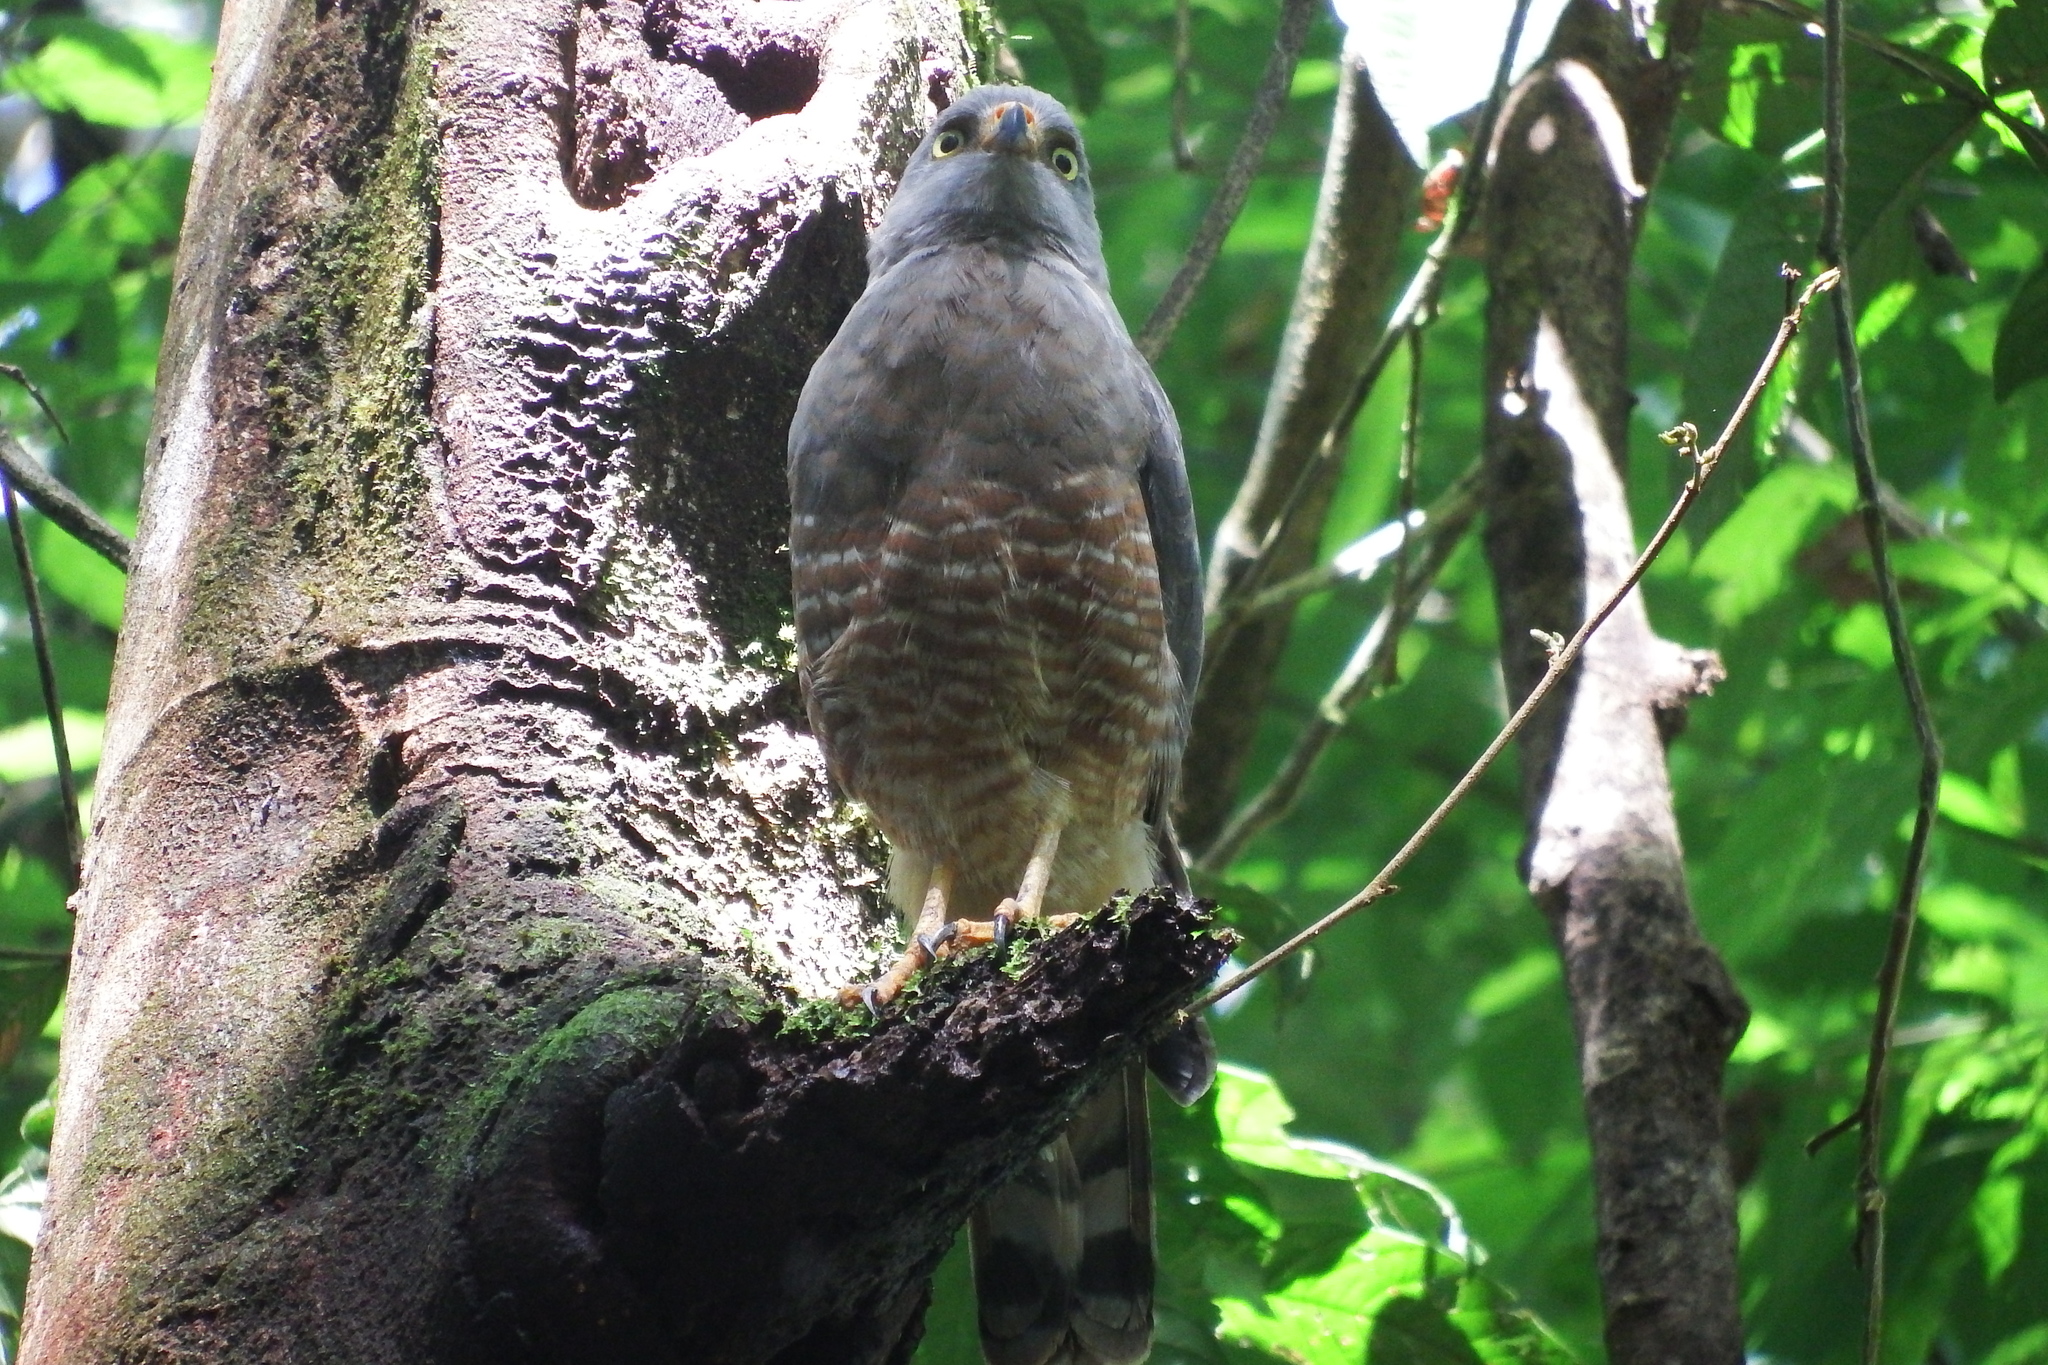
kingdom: Animalia
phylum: Chordata
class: Aves
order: Accipitriformes
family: Accipitridae
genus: Rupornis
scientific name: Rupornis magnirostris
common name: Roadside hawk
